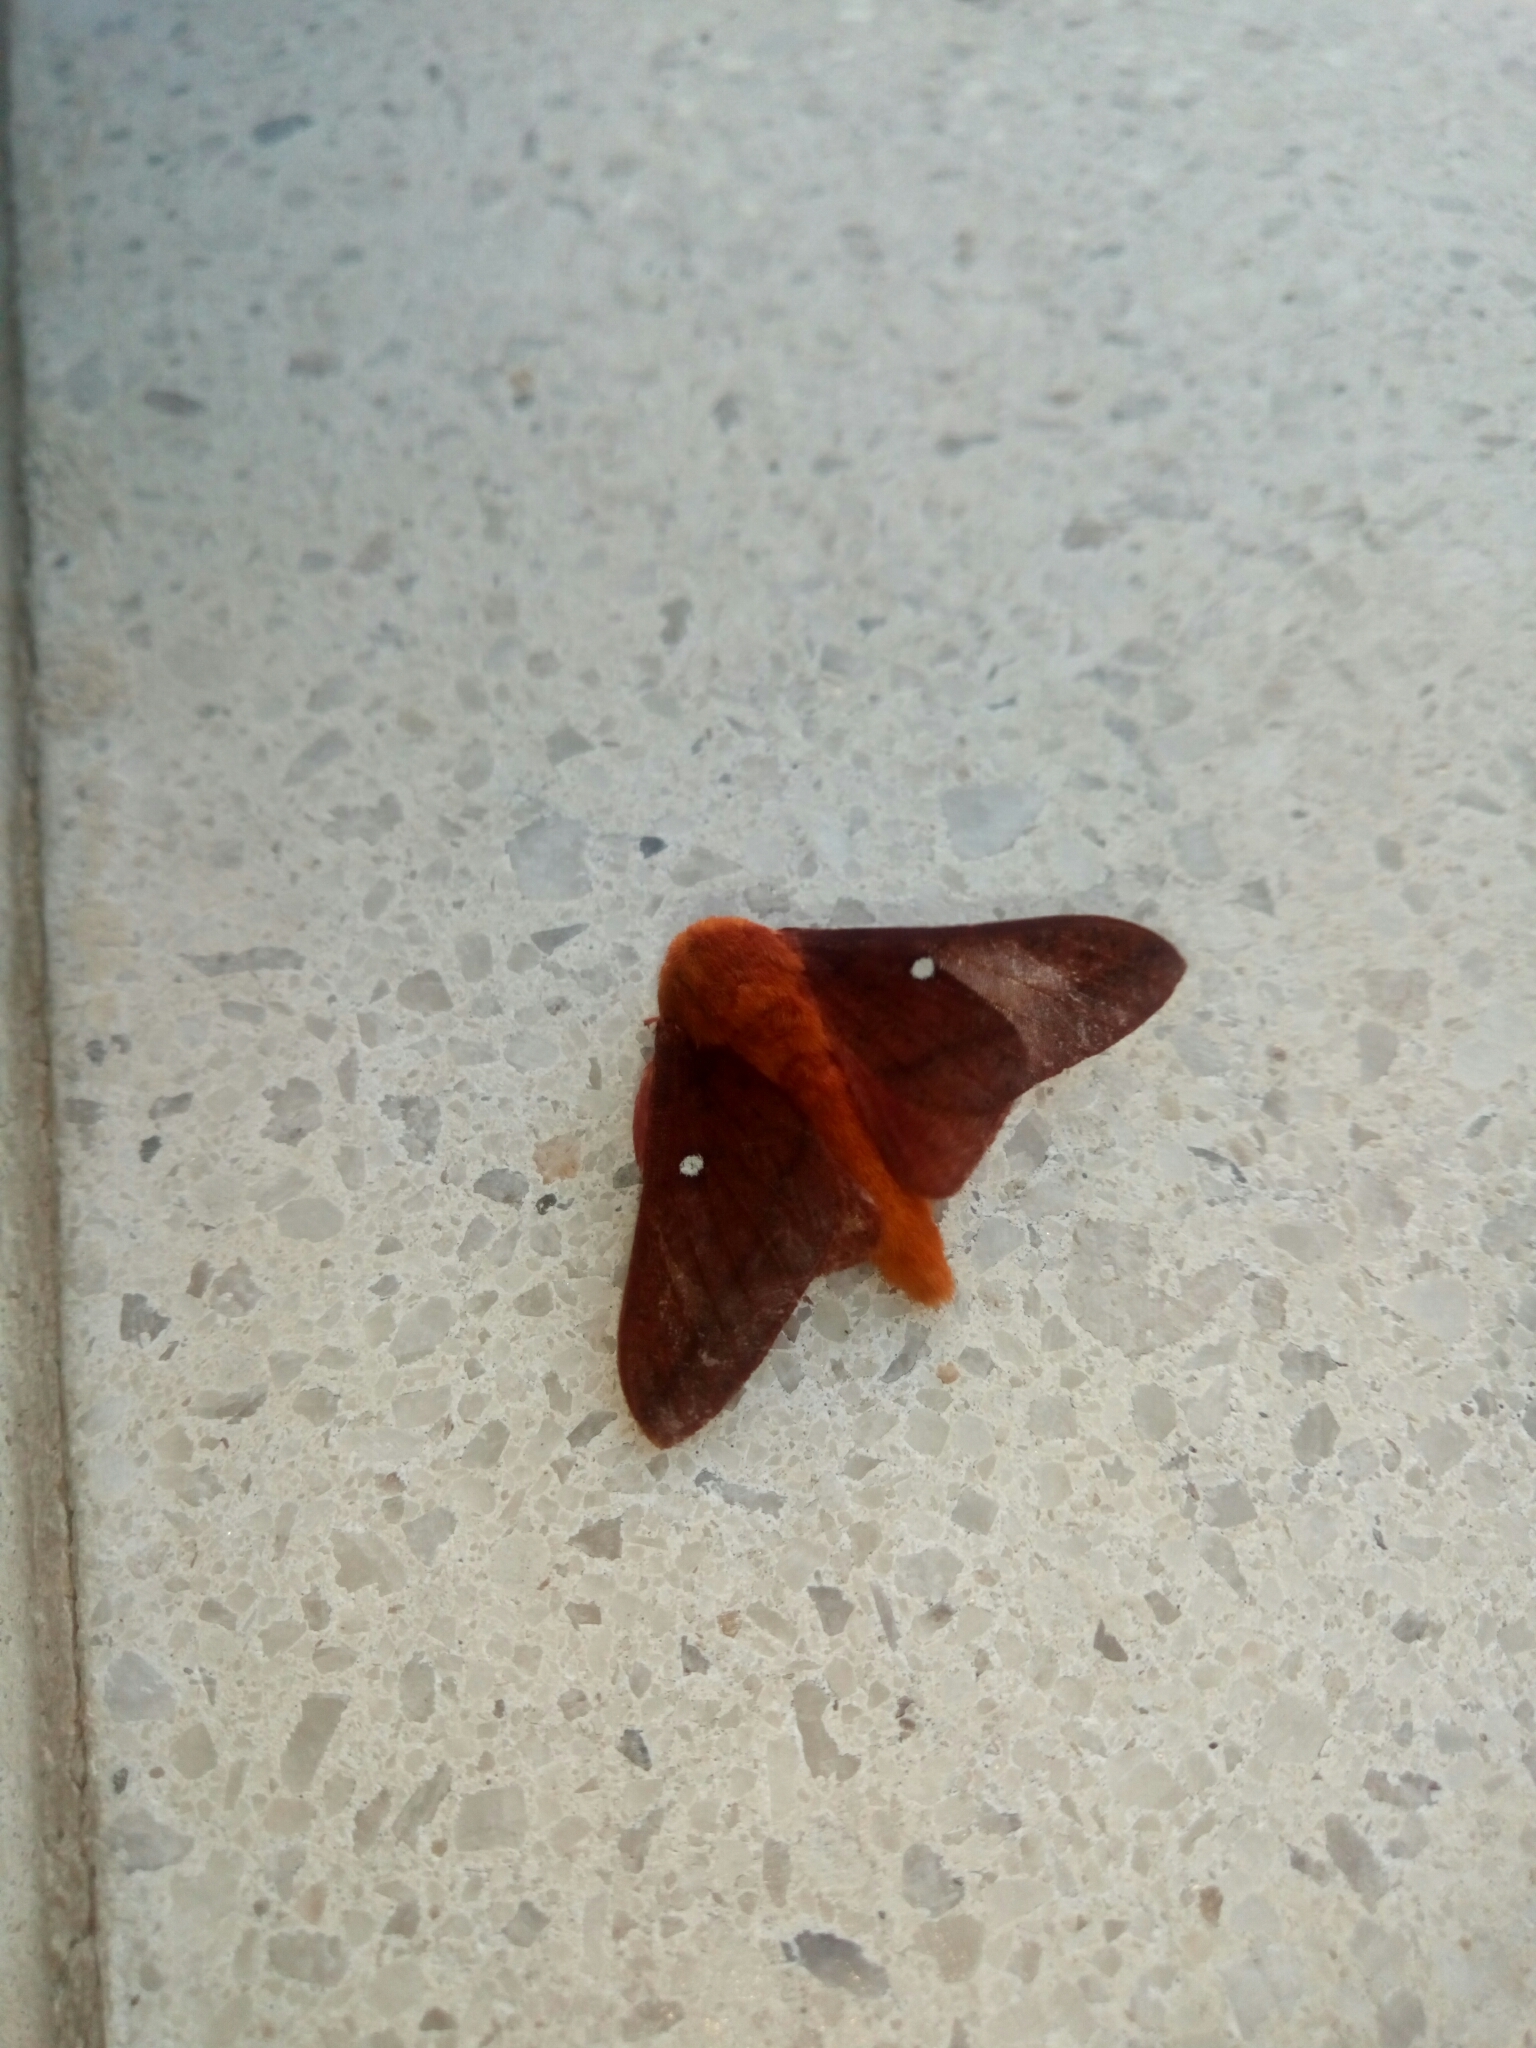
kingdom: Animalia
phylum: Arthropoda
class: Insecta
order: Lepidoptera
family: Saturniidae
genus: Anisota
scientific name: Anisota virginiensis
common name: Pink striped oakworm moth
